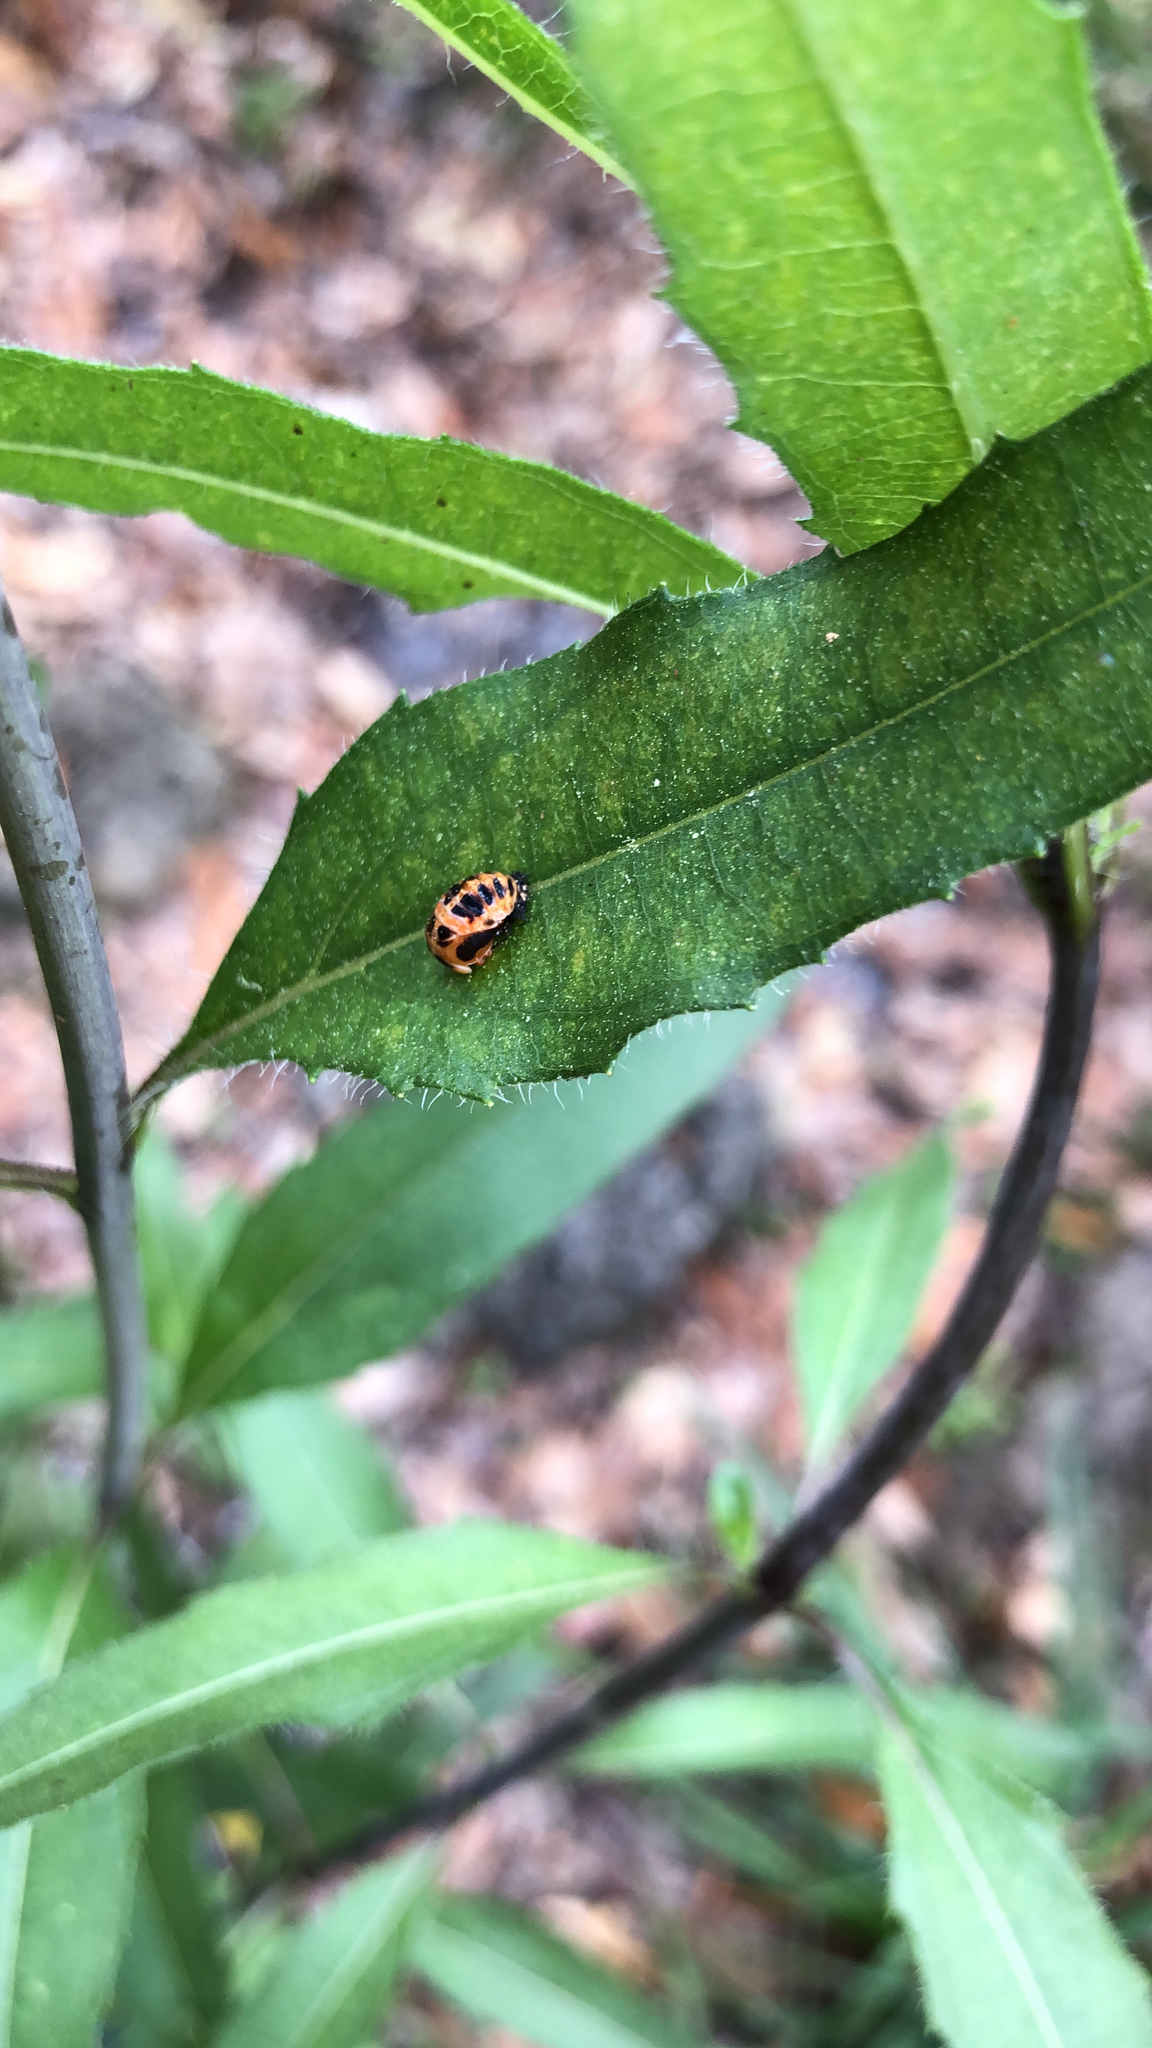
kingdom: Animalia
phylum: Arthropoda
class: Insecta
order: Coleoptera
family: Coccinellidae
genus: Harmonia
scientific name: Harmonia axyridis
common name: Harlequin ladybird
